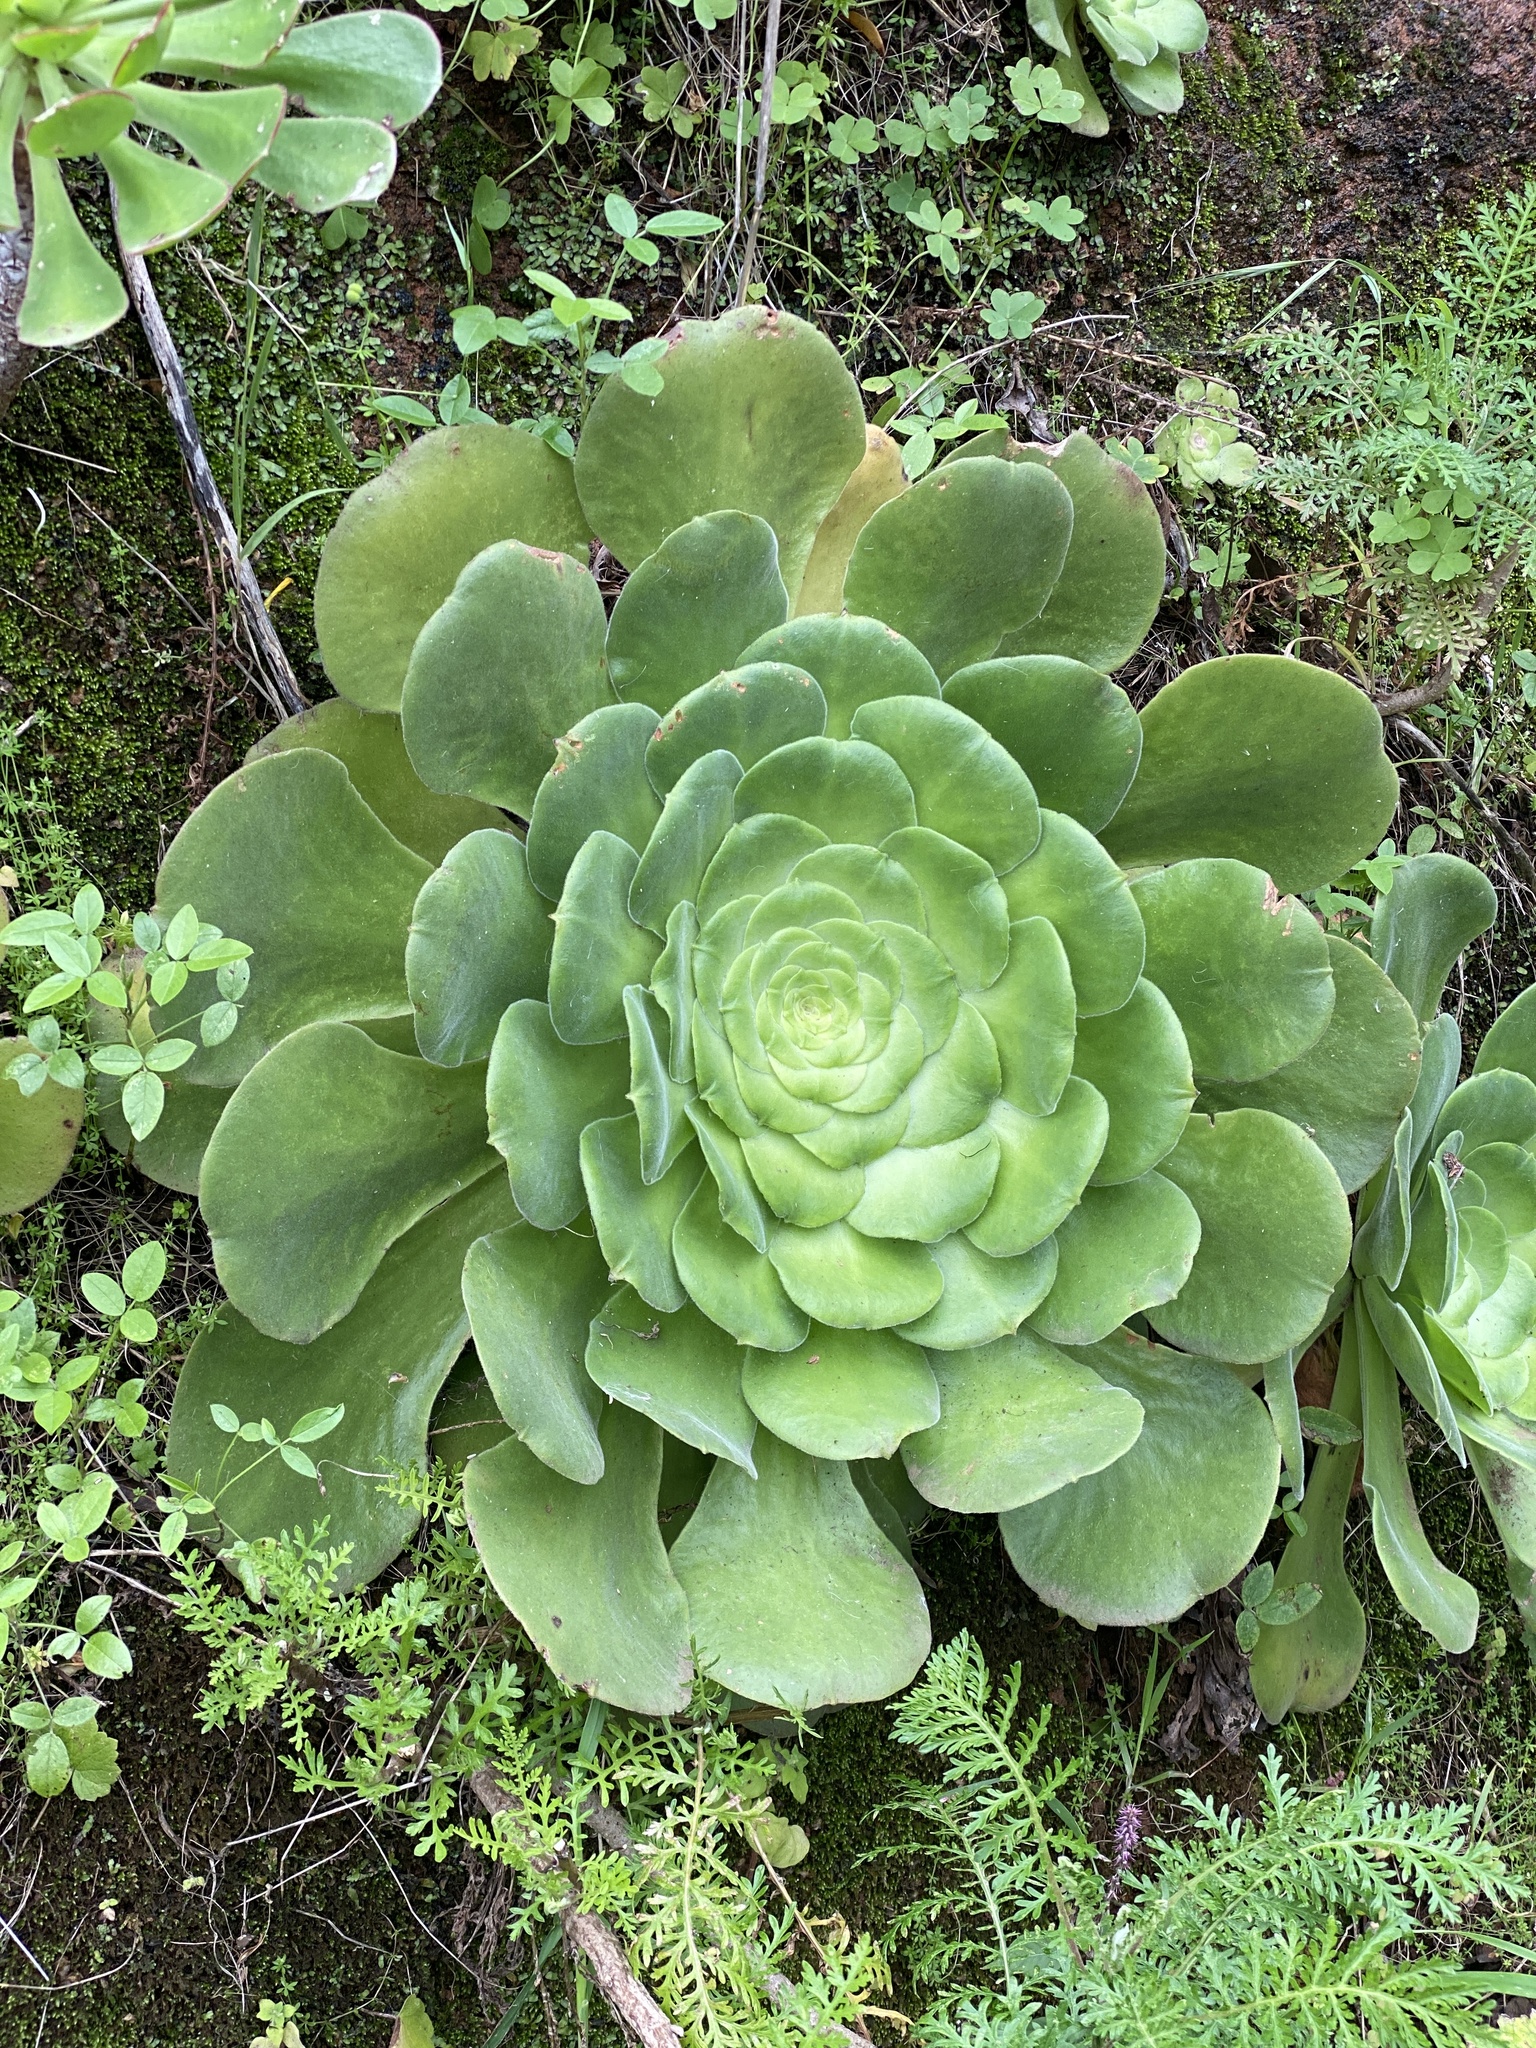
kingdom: Plantae
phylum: Tracheophyta
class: Magnoliopsida
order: Saxifragales
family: Crassulaceae
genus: Aeonium
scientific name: Aeonium canariense
